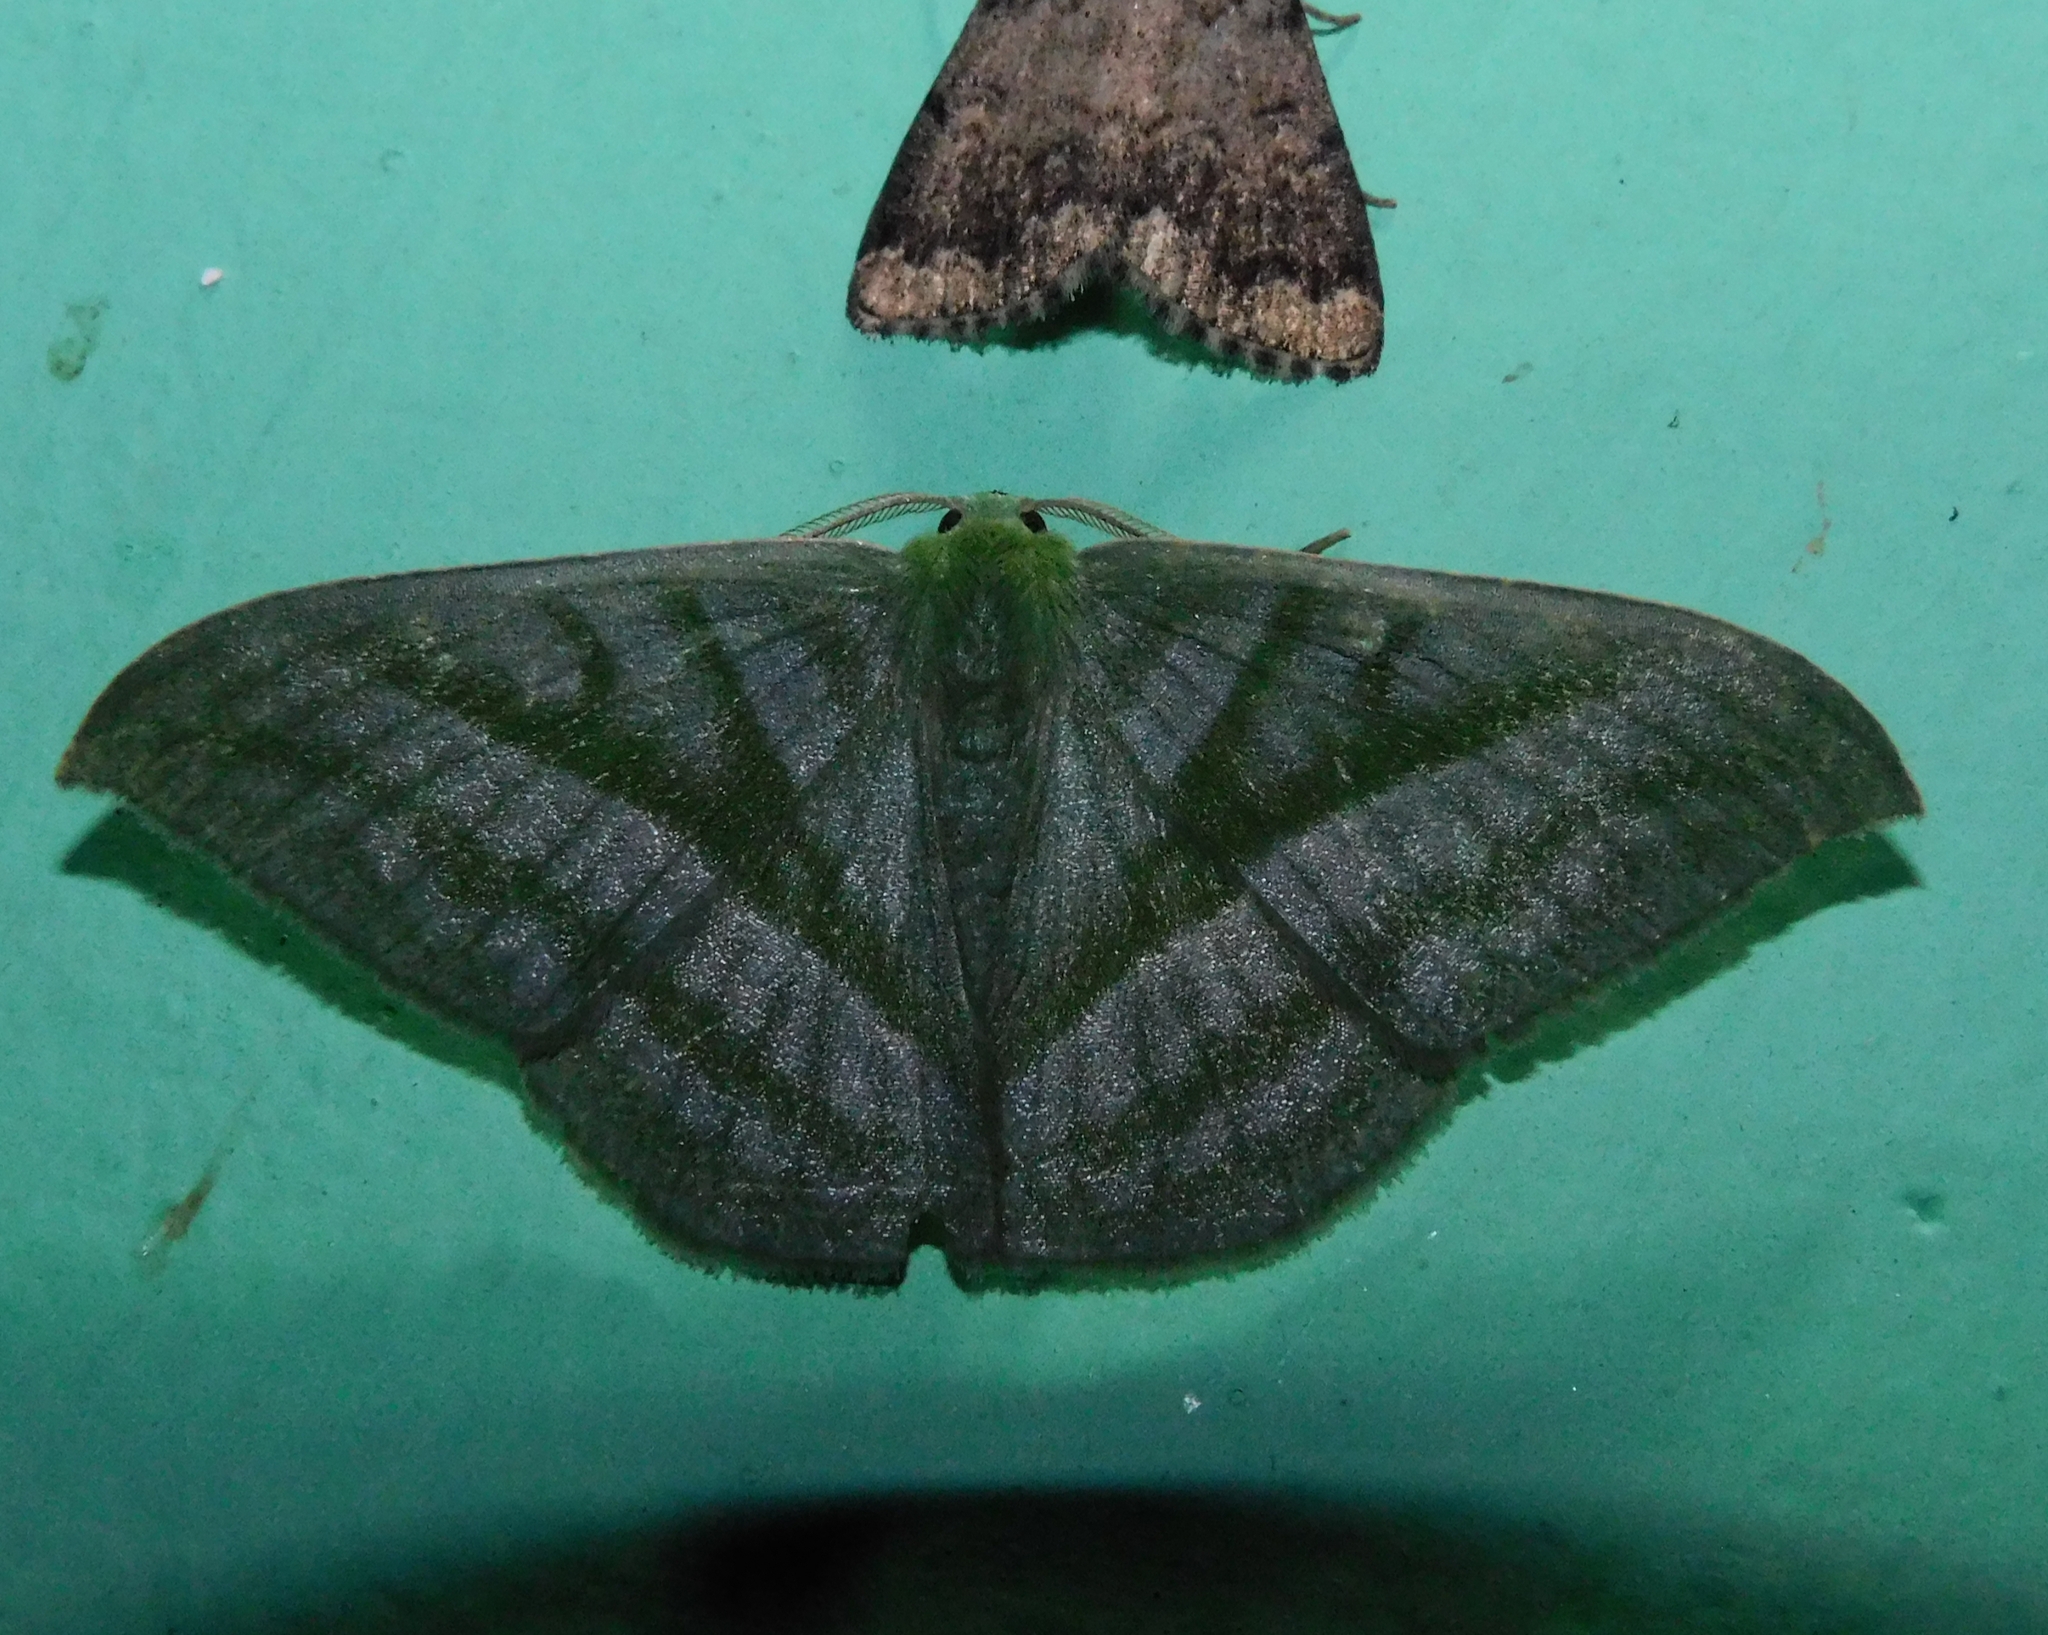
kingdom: Animalia
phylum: Arthropoda
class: Insecta
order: Lepidoptera
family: Geometridae
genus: Mixochlora
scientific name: Mixochlora vittata
